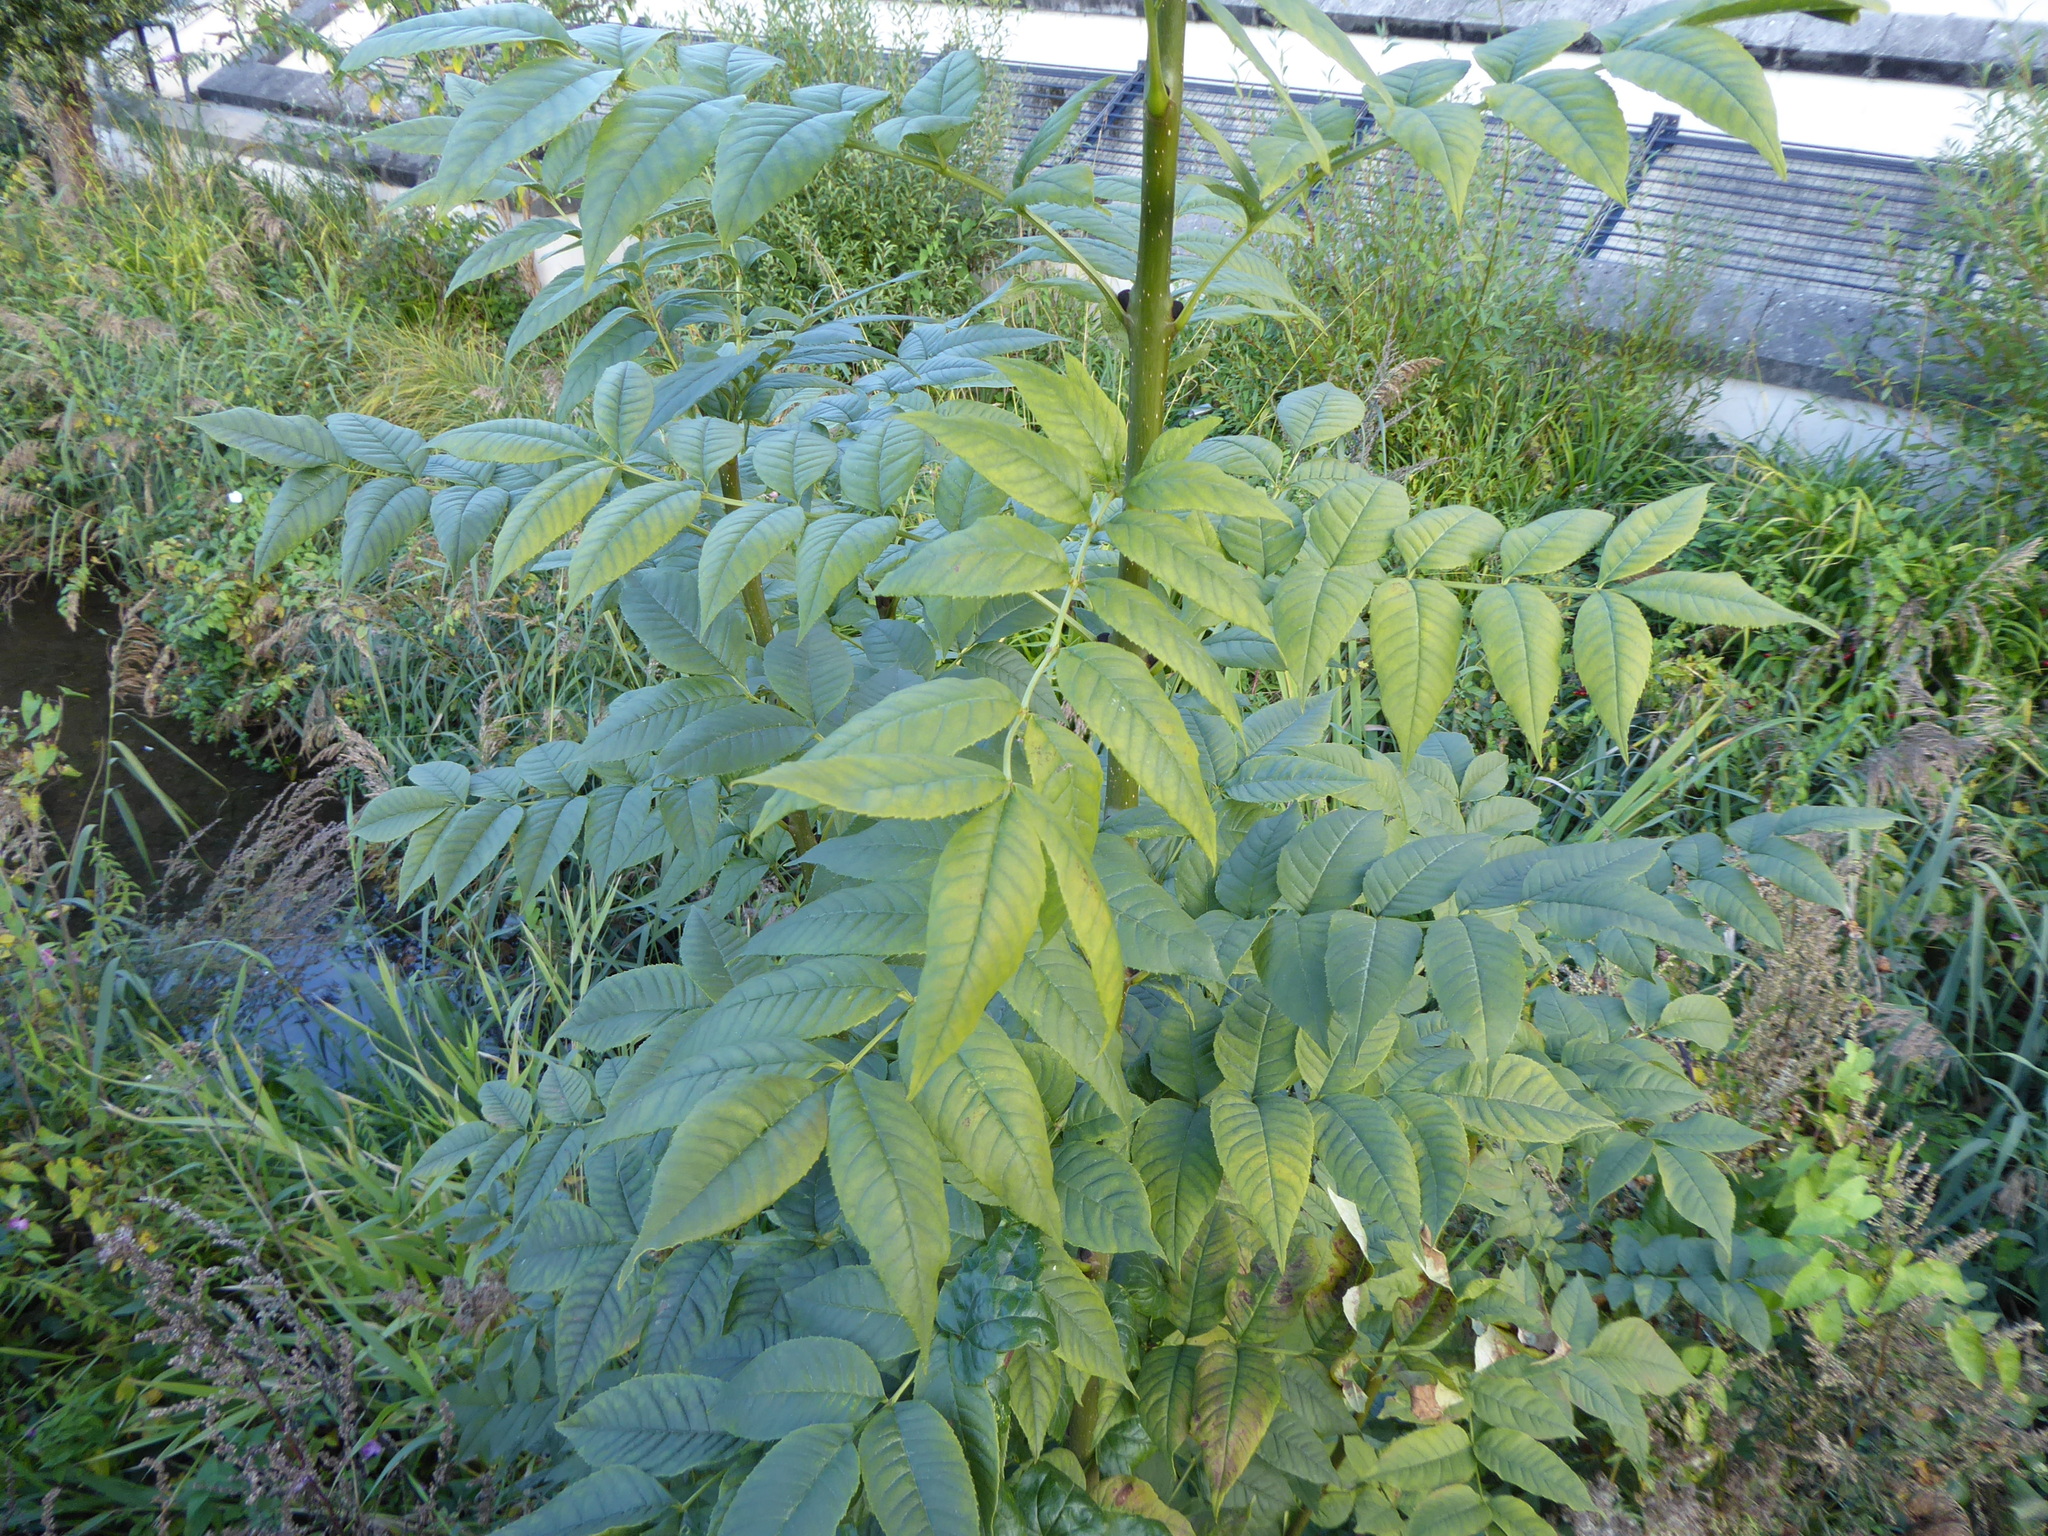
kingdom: Plantae
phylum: Tracheophyta
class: Magnoliopsida
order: Lamiales
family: Oleaceae
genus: Fraxinus
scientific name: Fraxinus excelsior
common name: European ash
